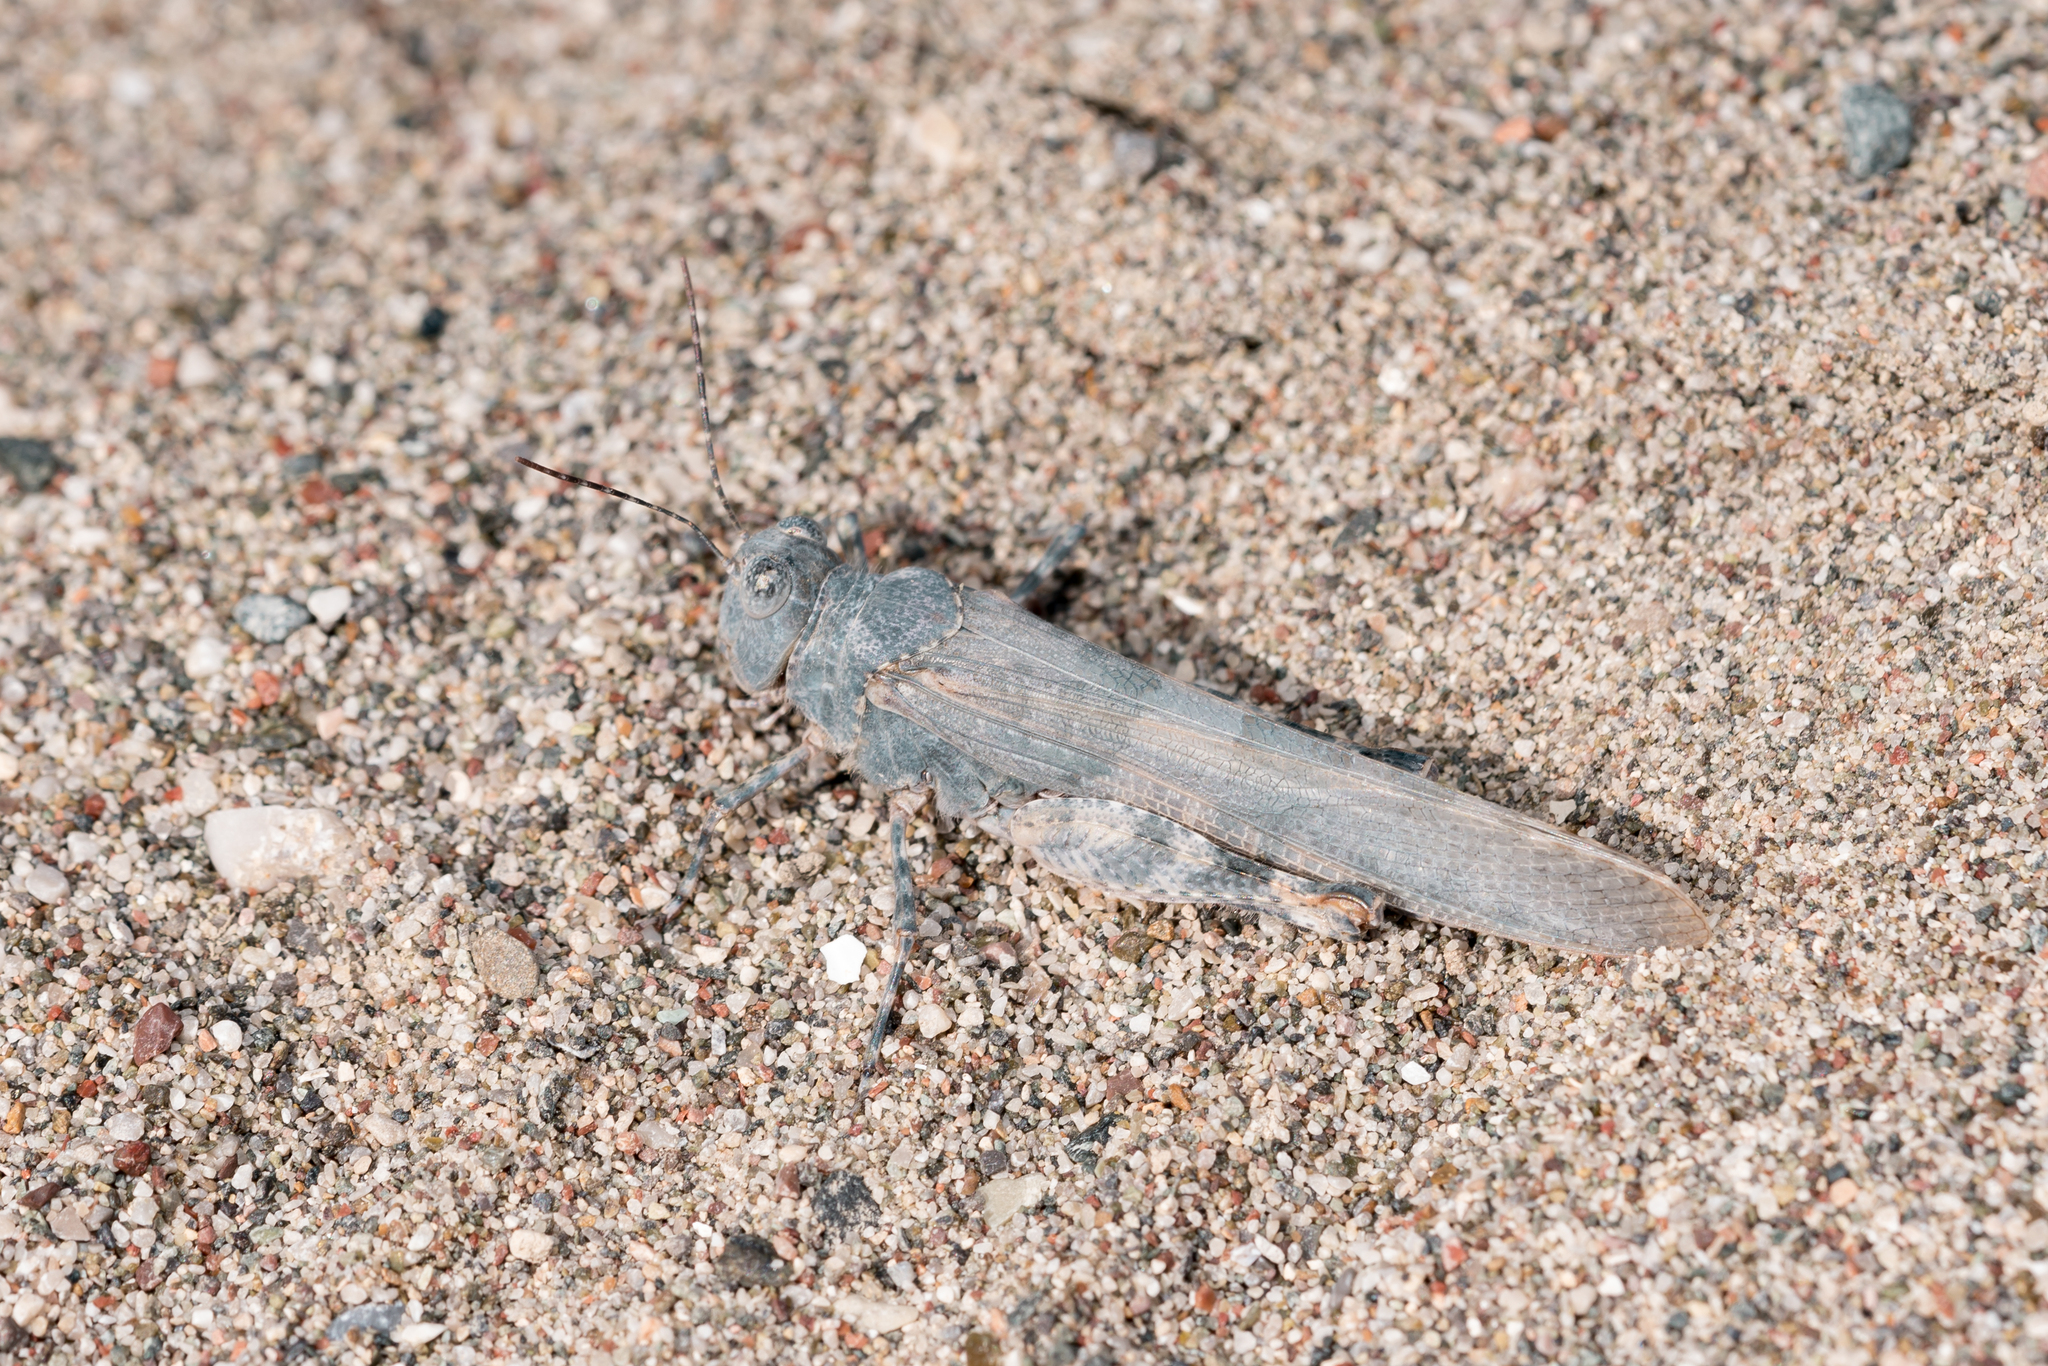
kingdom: Animalia
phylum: Arthropoda
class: Insecta
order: Orthoptera
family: Acrididae
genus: Sphingonotus
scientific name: Sphingonotus
